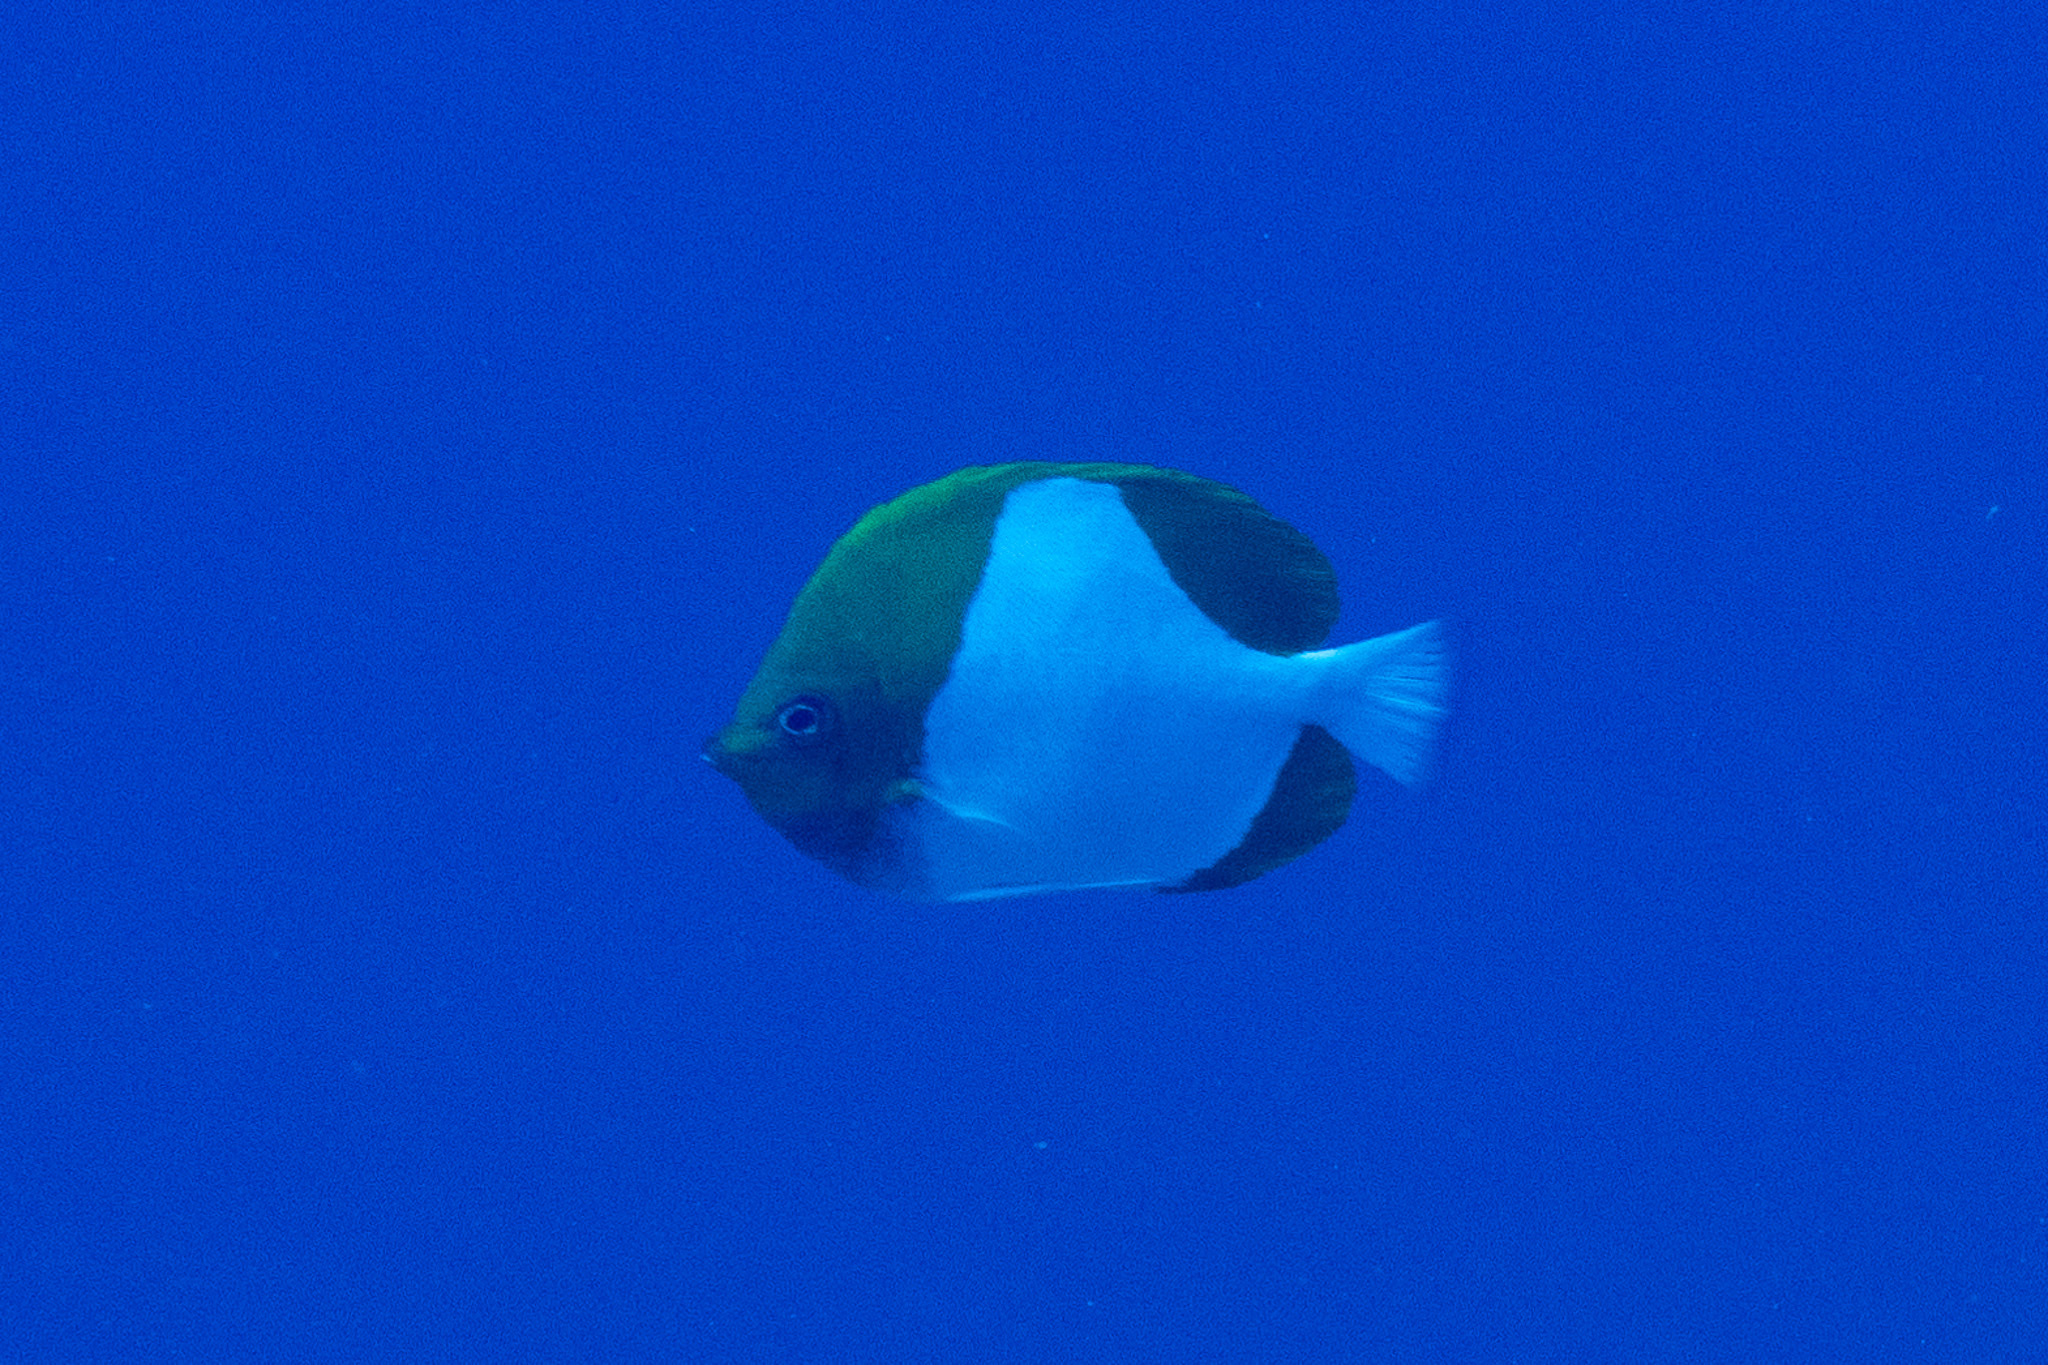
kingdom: Animalia
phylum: Chordata
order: Perciformes
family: Chaetodontidae
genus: Hemitaurichthys
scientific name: Hemitaurichthys polylepis
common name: Brushytoothed butterflyfish
